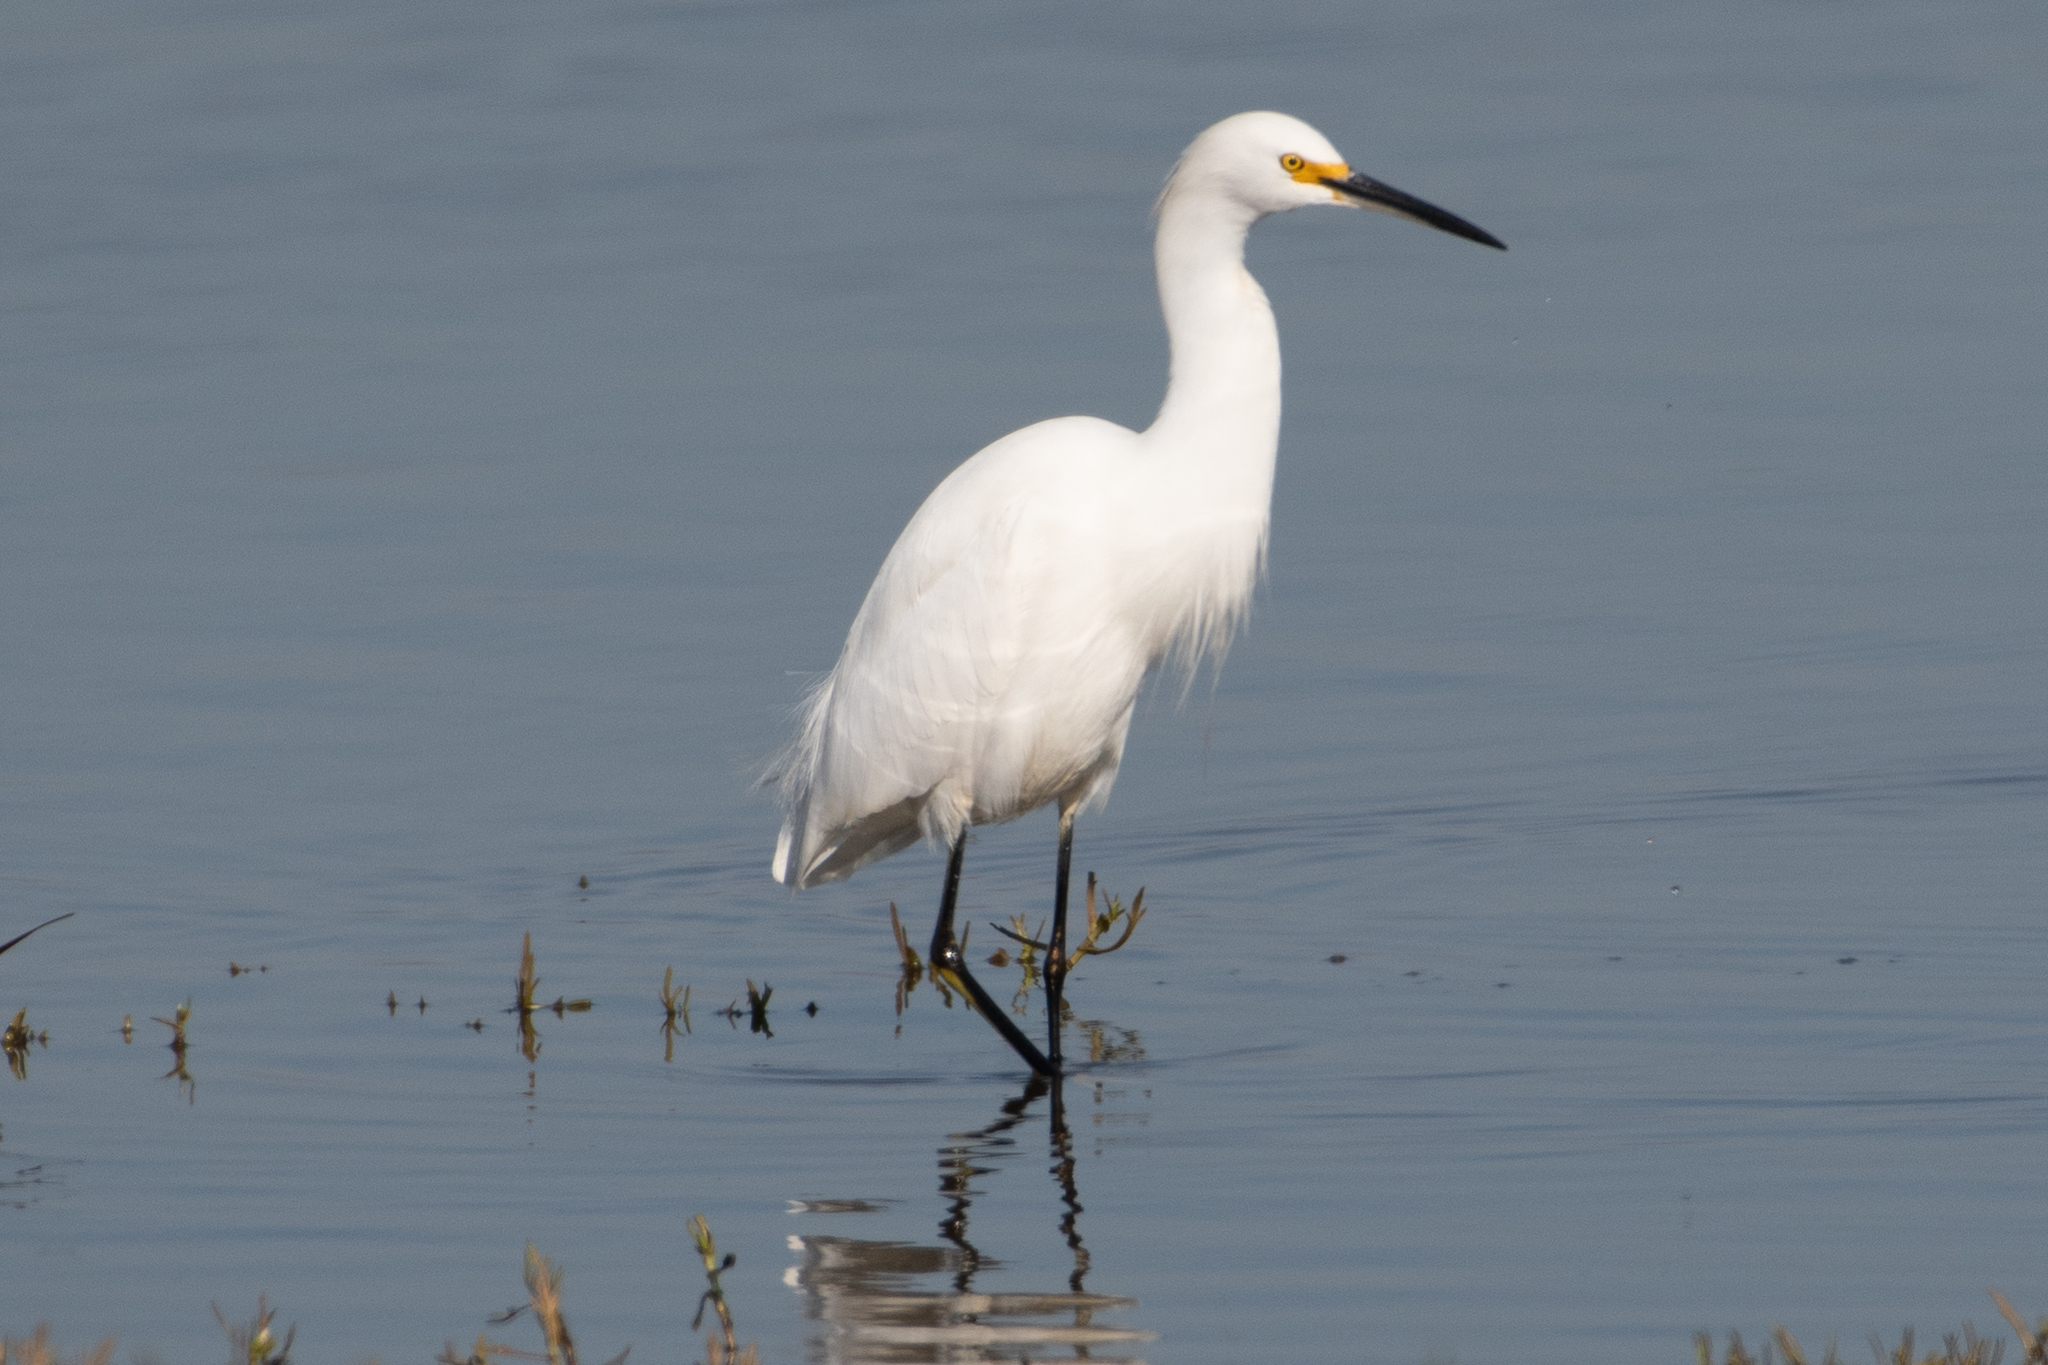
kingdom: Animalia
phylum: Chordata
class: Aves
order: Pelecaniformes
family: Ardeidae
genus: Egretta
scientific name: Egretta thula
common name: Snowy egret
